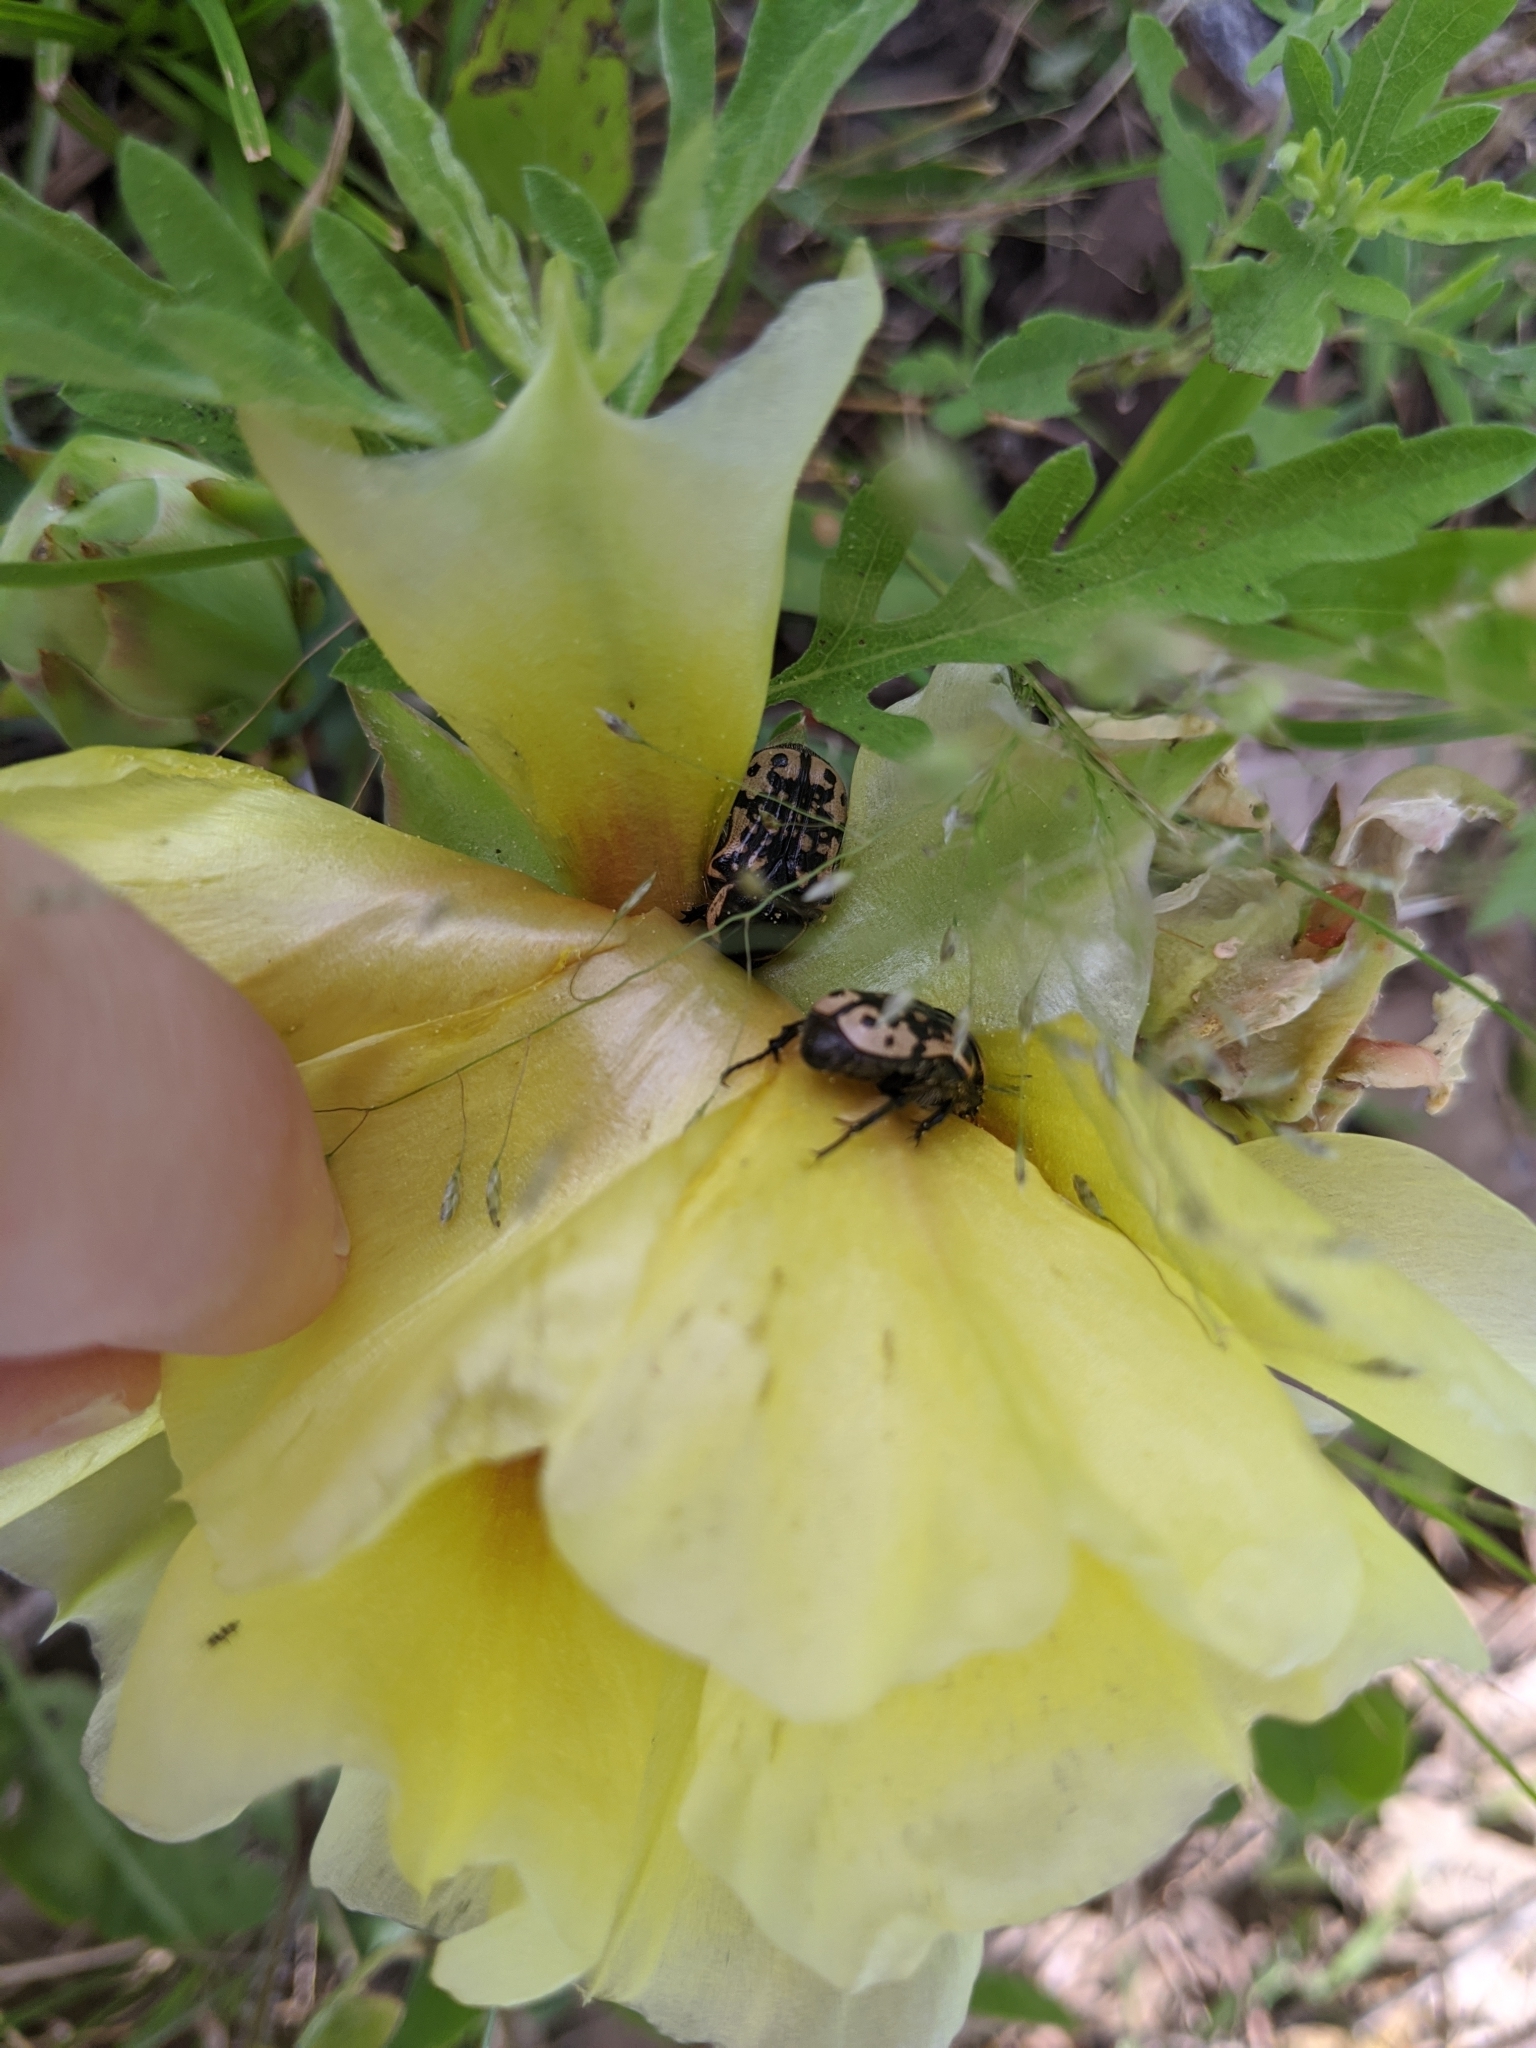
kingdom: Animalia
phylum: Arthropoda
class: Insecta
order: Coleoptera
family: Scarabaeidae
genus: Euphoria
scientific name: Euphoria kernii
